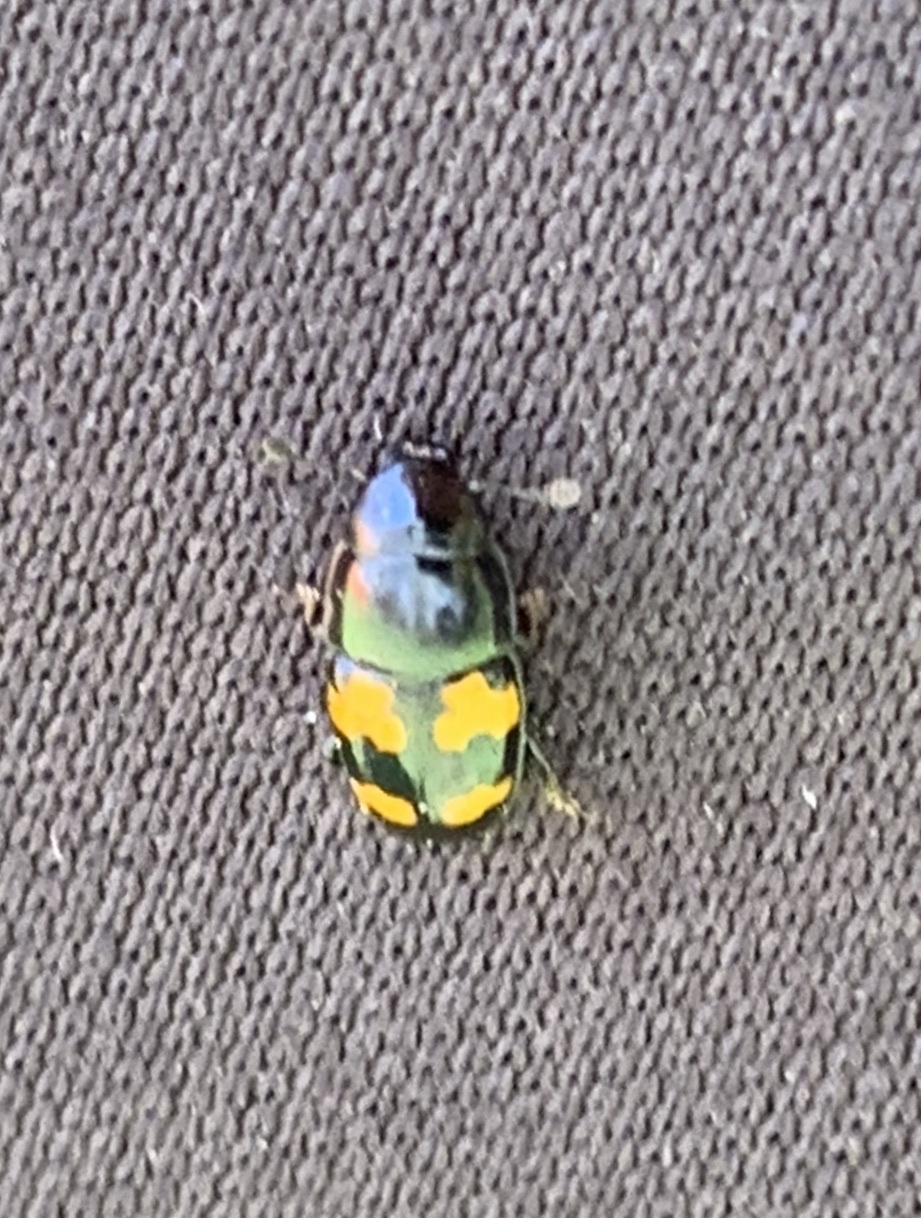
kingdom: Animalia
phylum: Arthropoda
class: Insecta
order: Coleoptera
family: Nitidulidae
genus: Glischrochilus
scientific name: Glischrochilus fasciatus
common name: Picnic beetle
